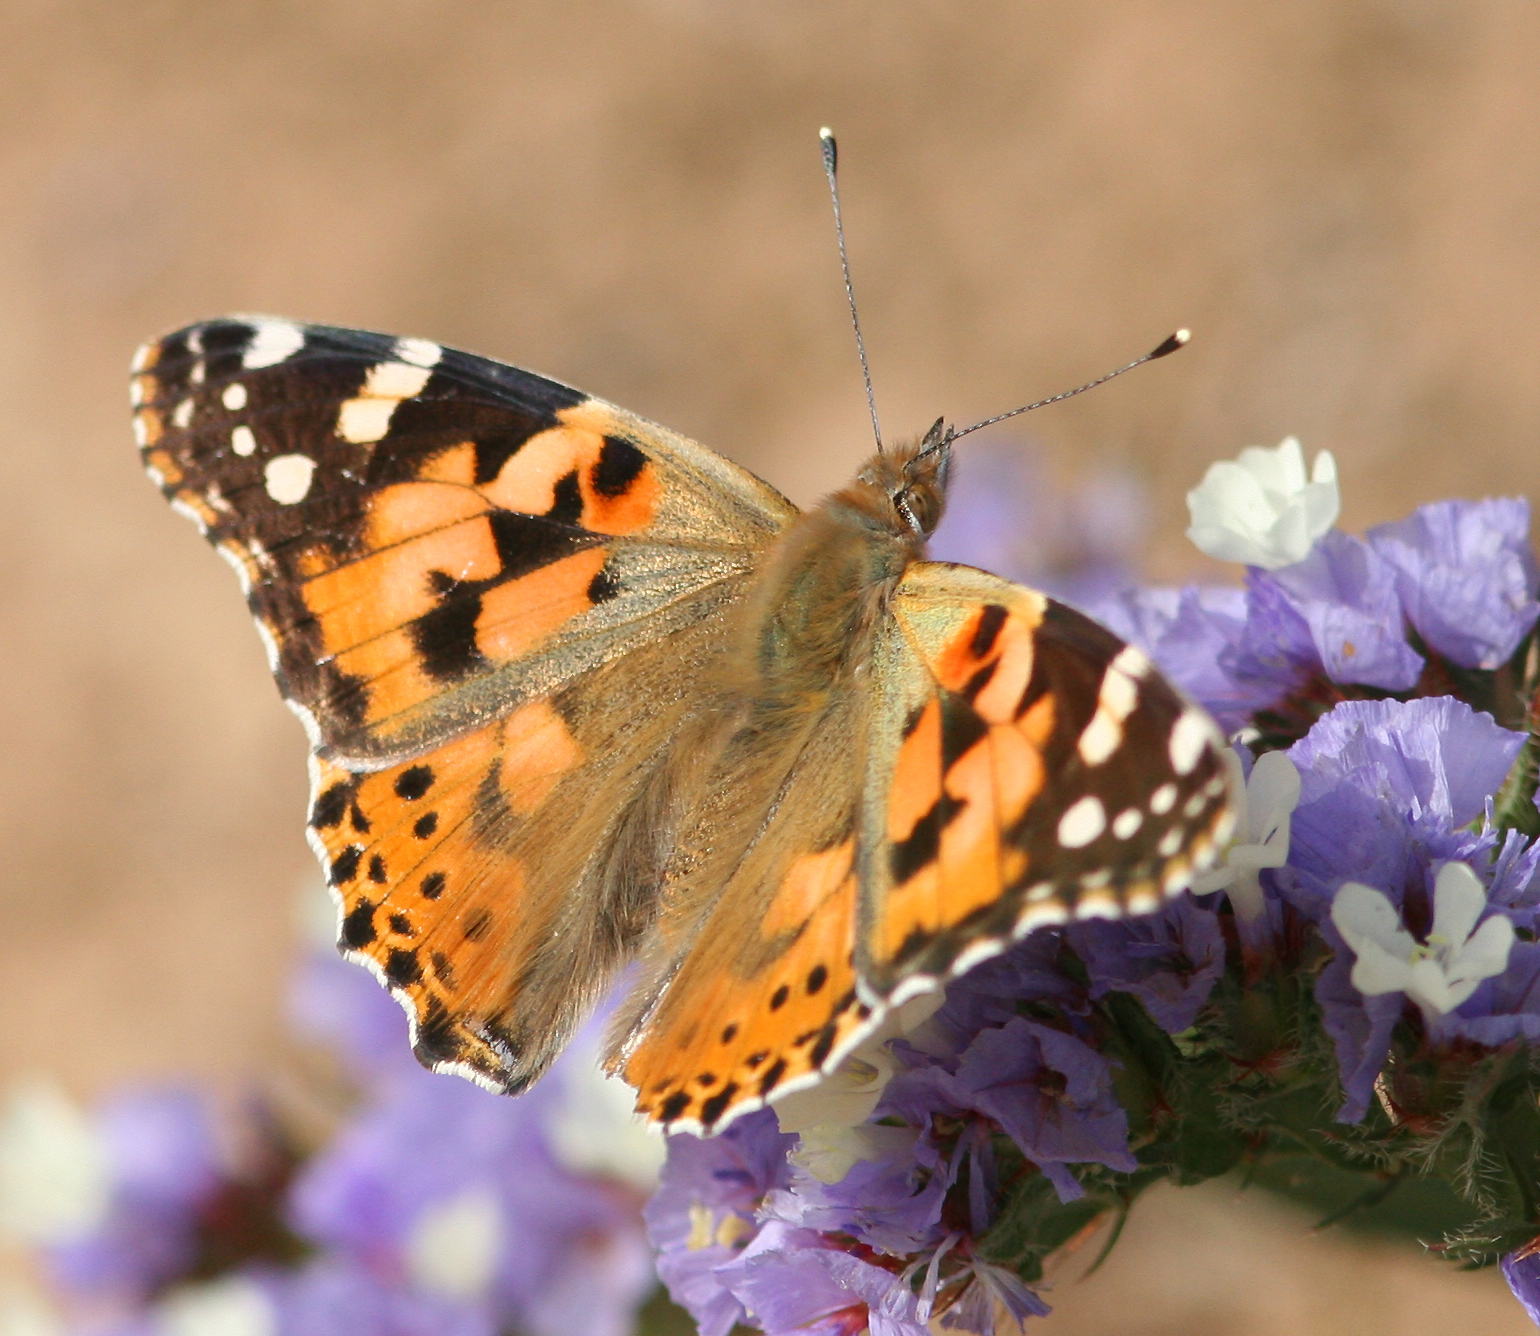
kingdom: Animalia
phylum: Arthropoda
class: Insecta
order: Lepidoptera
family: Nymphalidae
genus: Vanessa
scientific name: Vanessa cardui
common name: Painted lady
